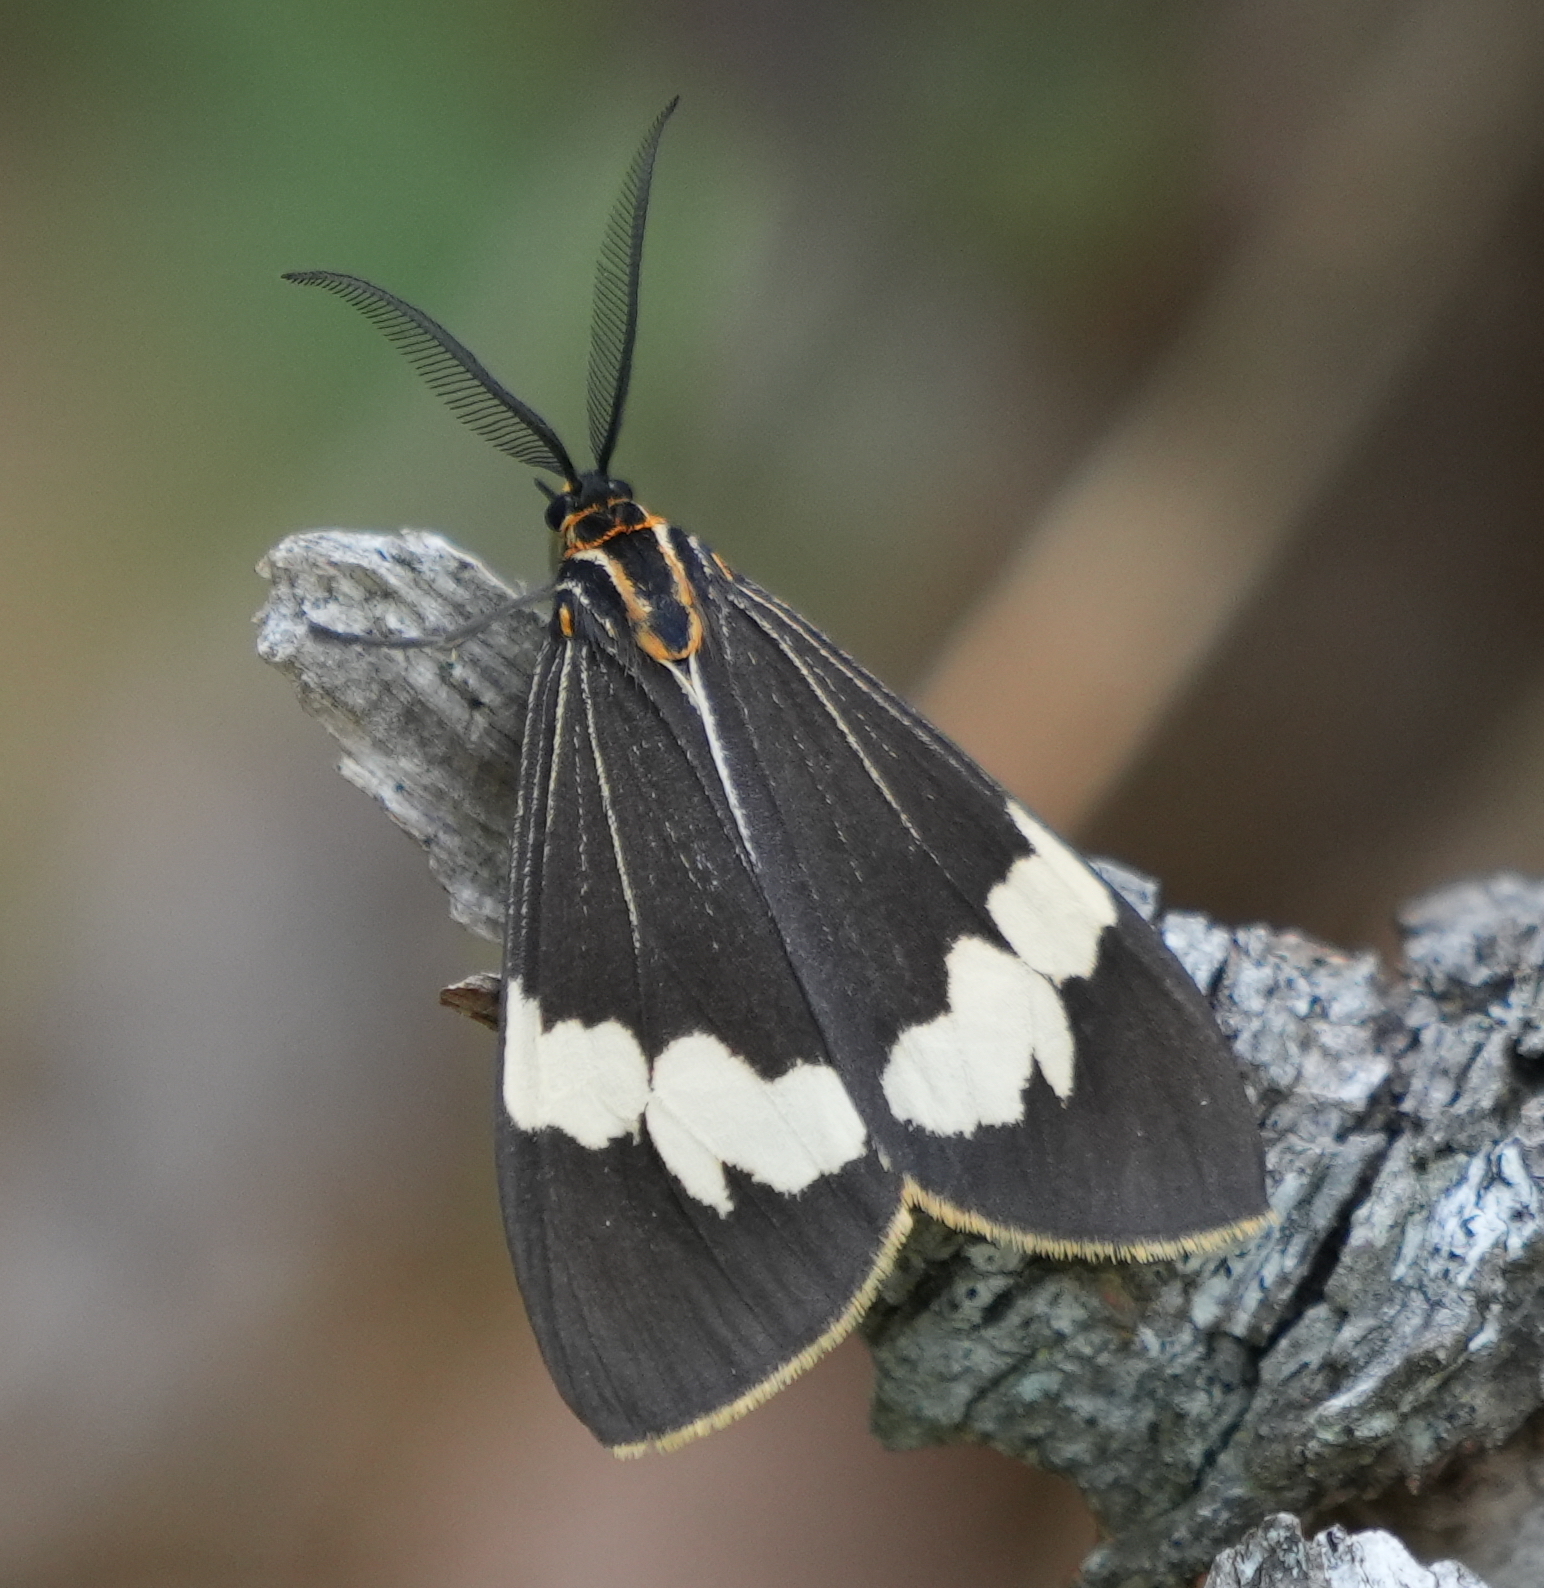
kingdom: Animalia
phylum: Arthropoda
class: Insecta
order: Lepidoptera
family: Erebidae
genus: Nyctemera
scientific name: Nyctemera amicus
